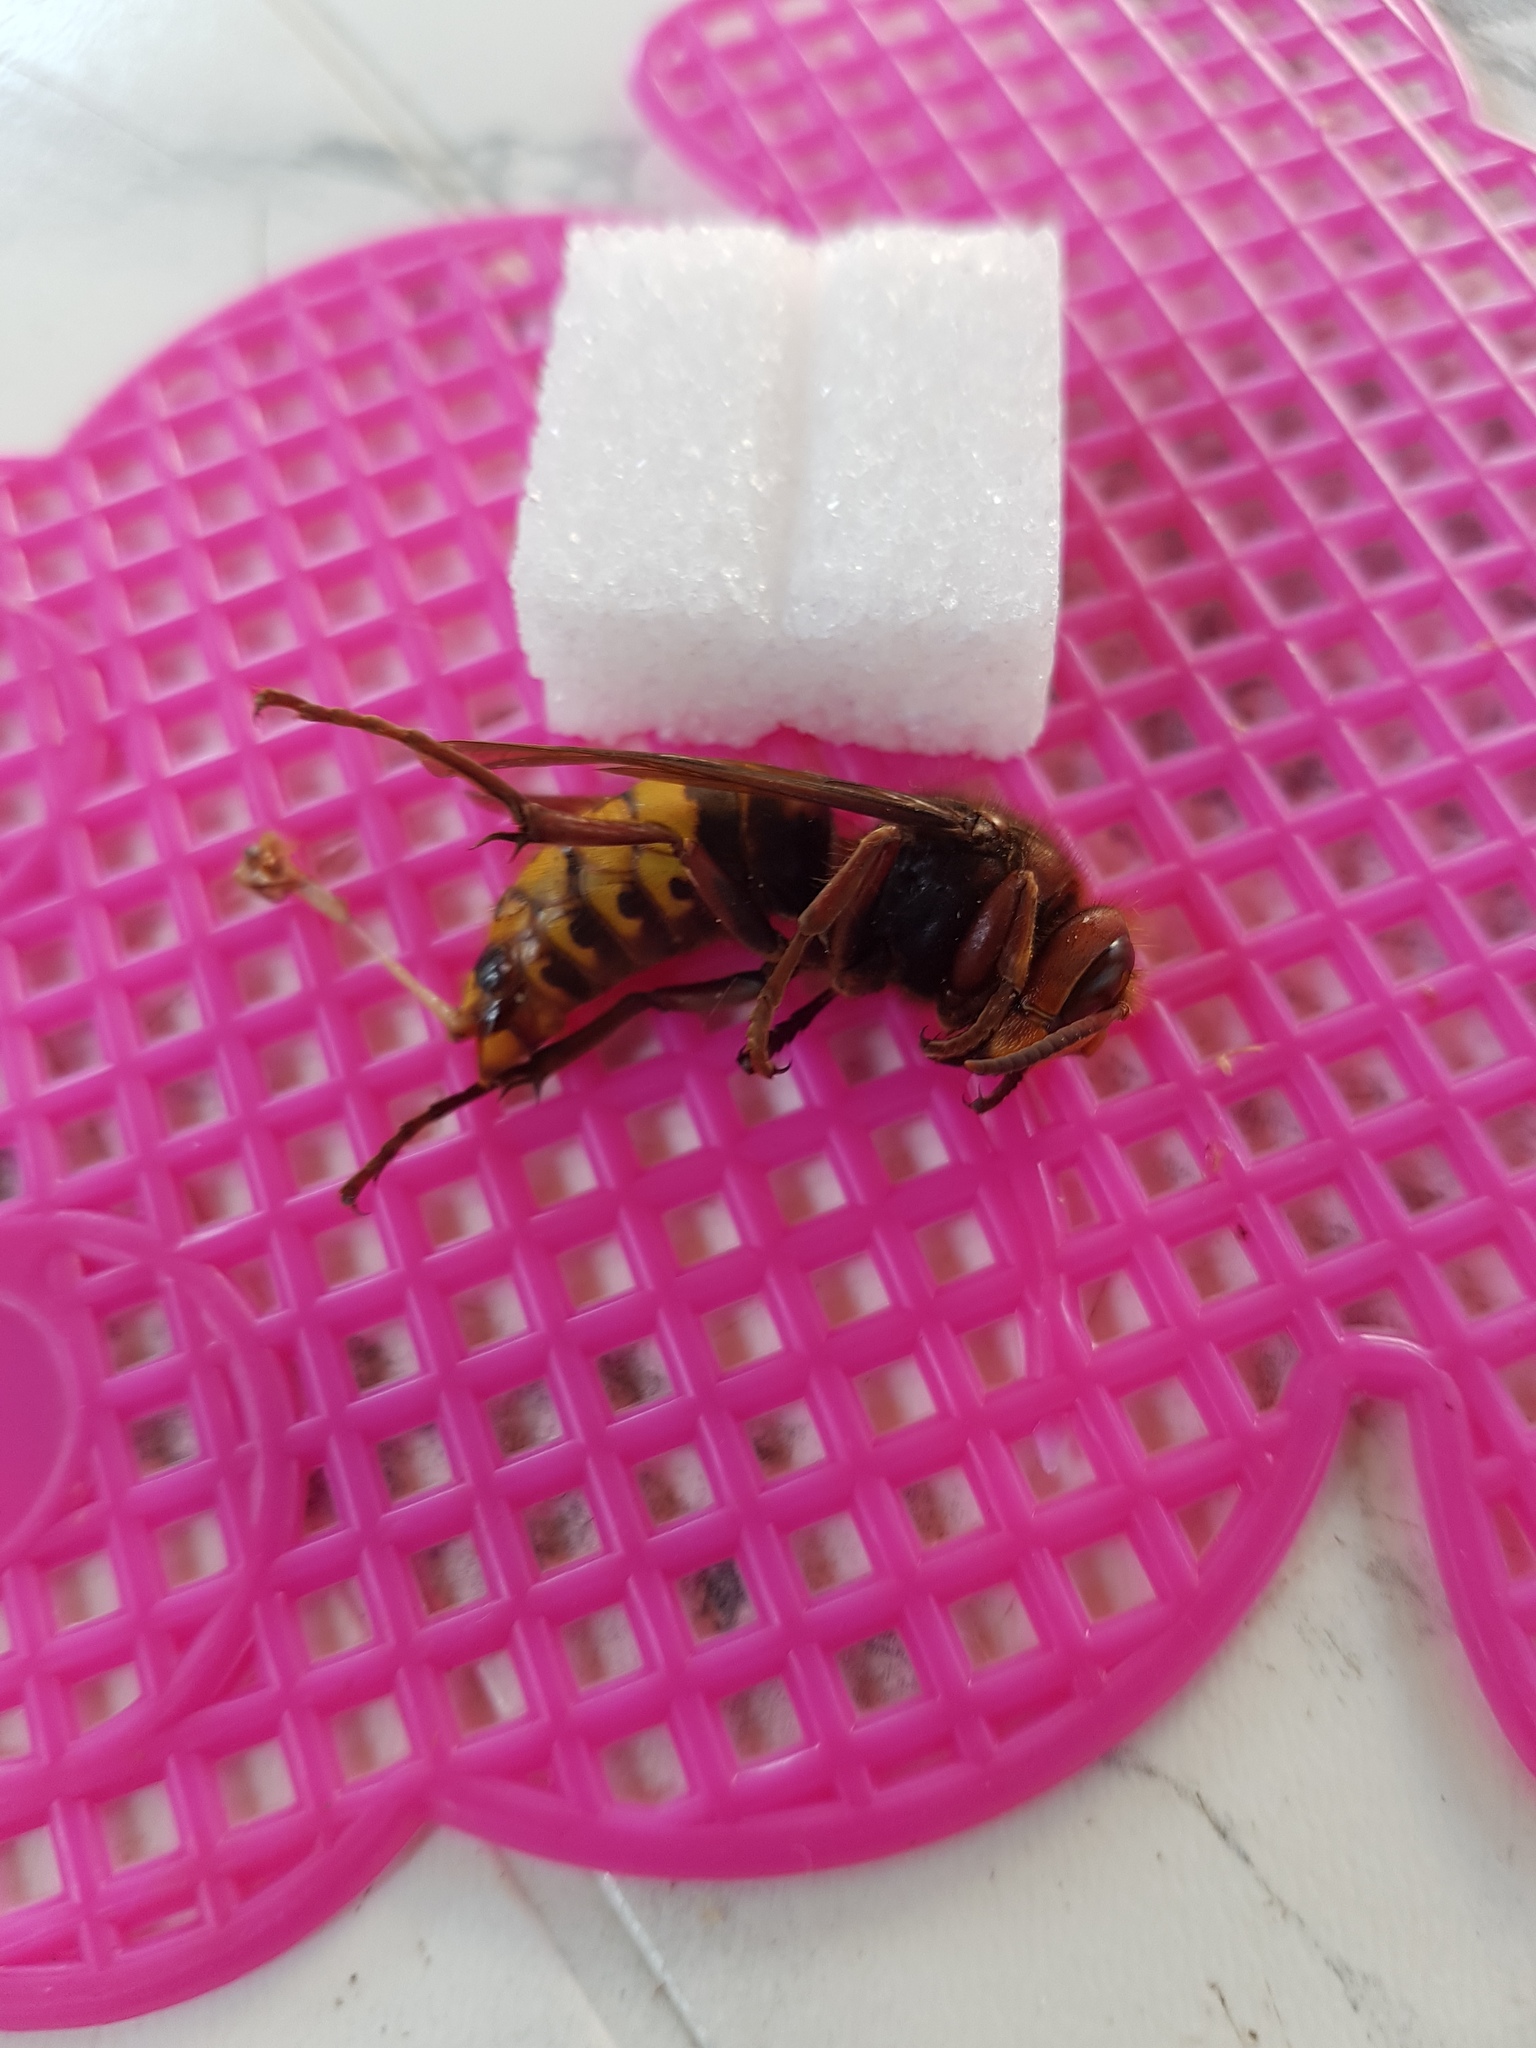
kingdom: Animalia
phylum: Arthropoda
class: Insecta
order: Hymenoptera
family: Vespidae
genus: Vespa
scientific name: Vespa crabro
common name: Hornet
